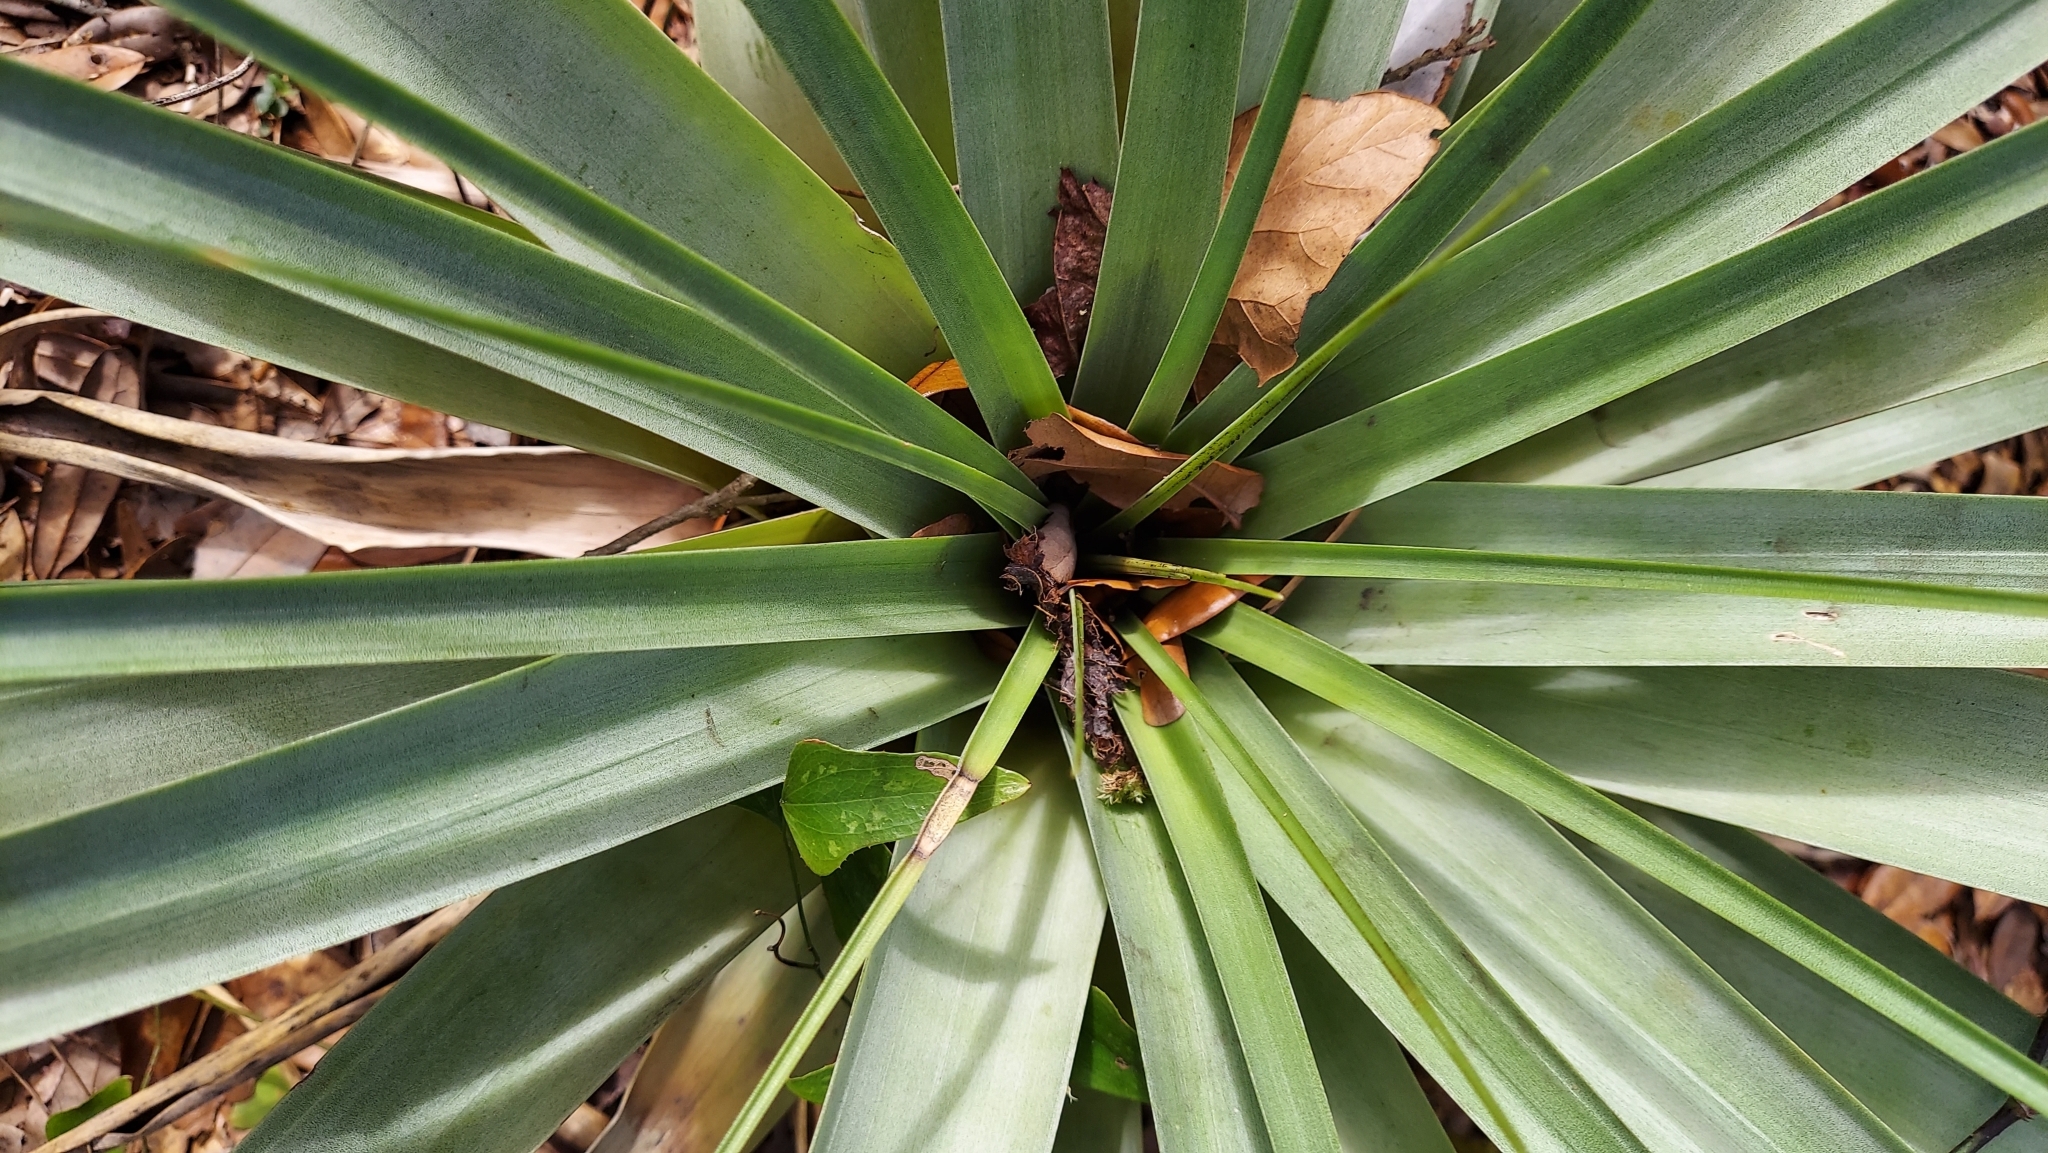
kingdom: Plantae
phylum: Tracheophyta
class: Liliopsida
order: Poales
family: Bromeliaceae
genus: Tillandsia
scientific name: Tillandsia utriculata
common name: Wild pine
